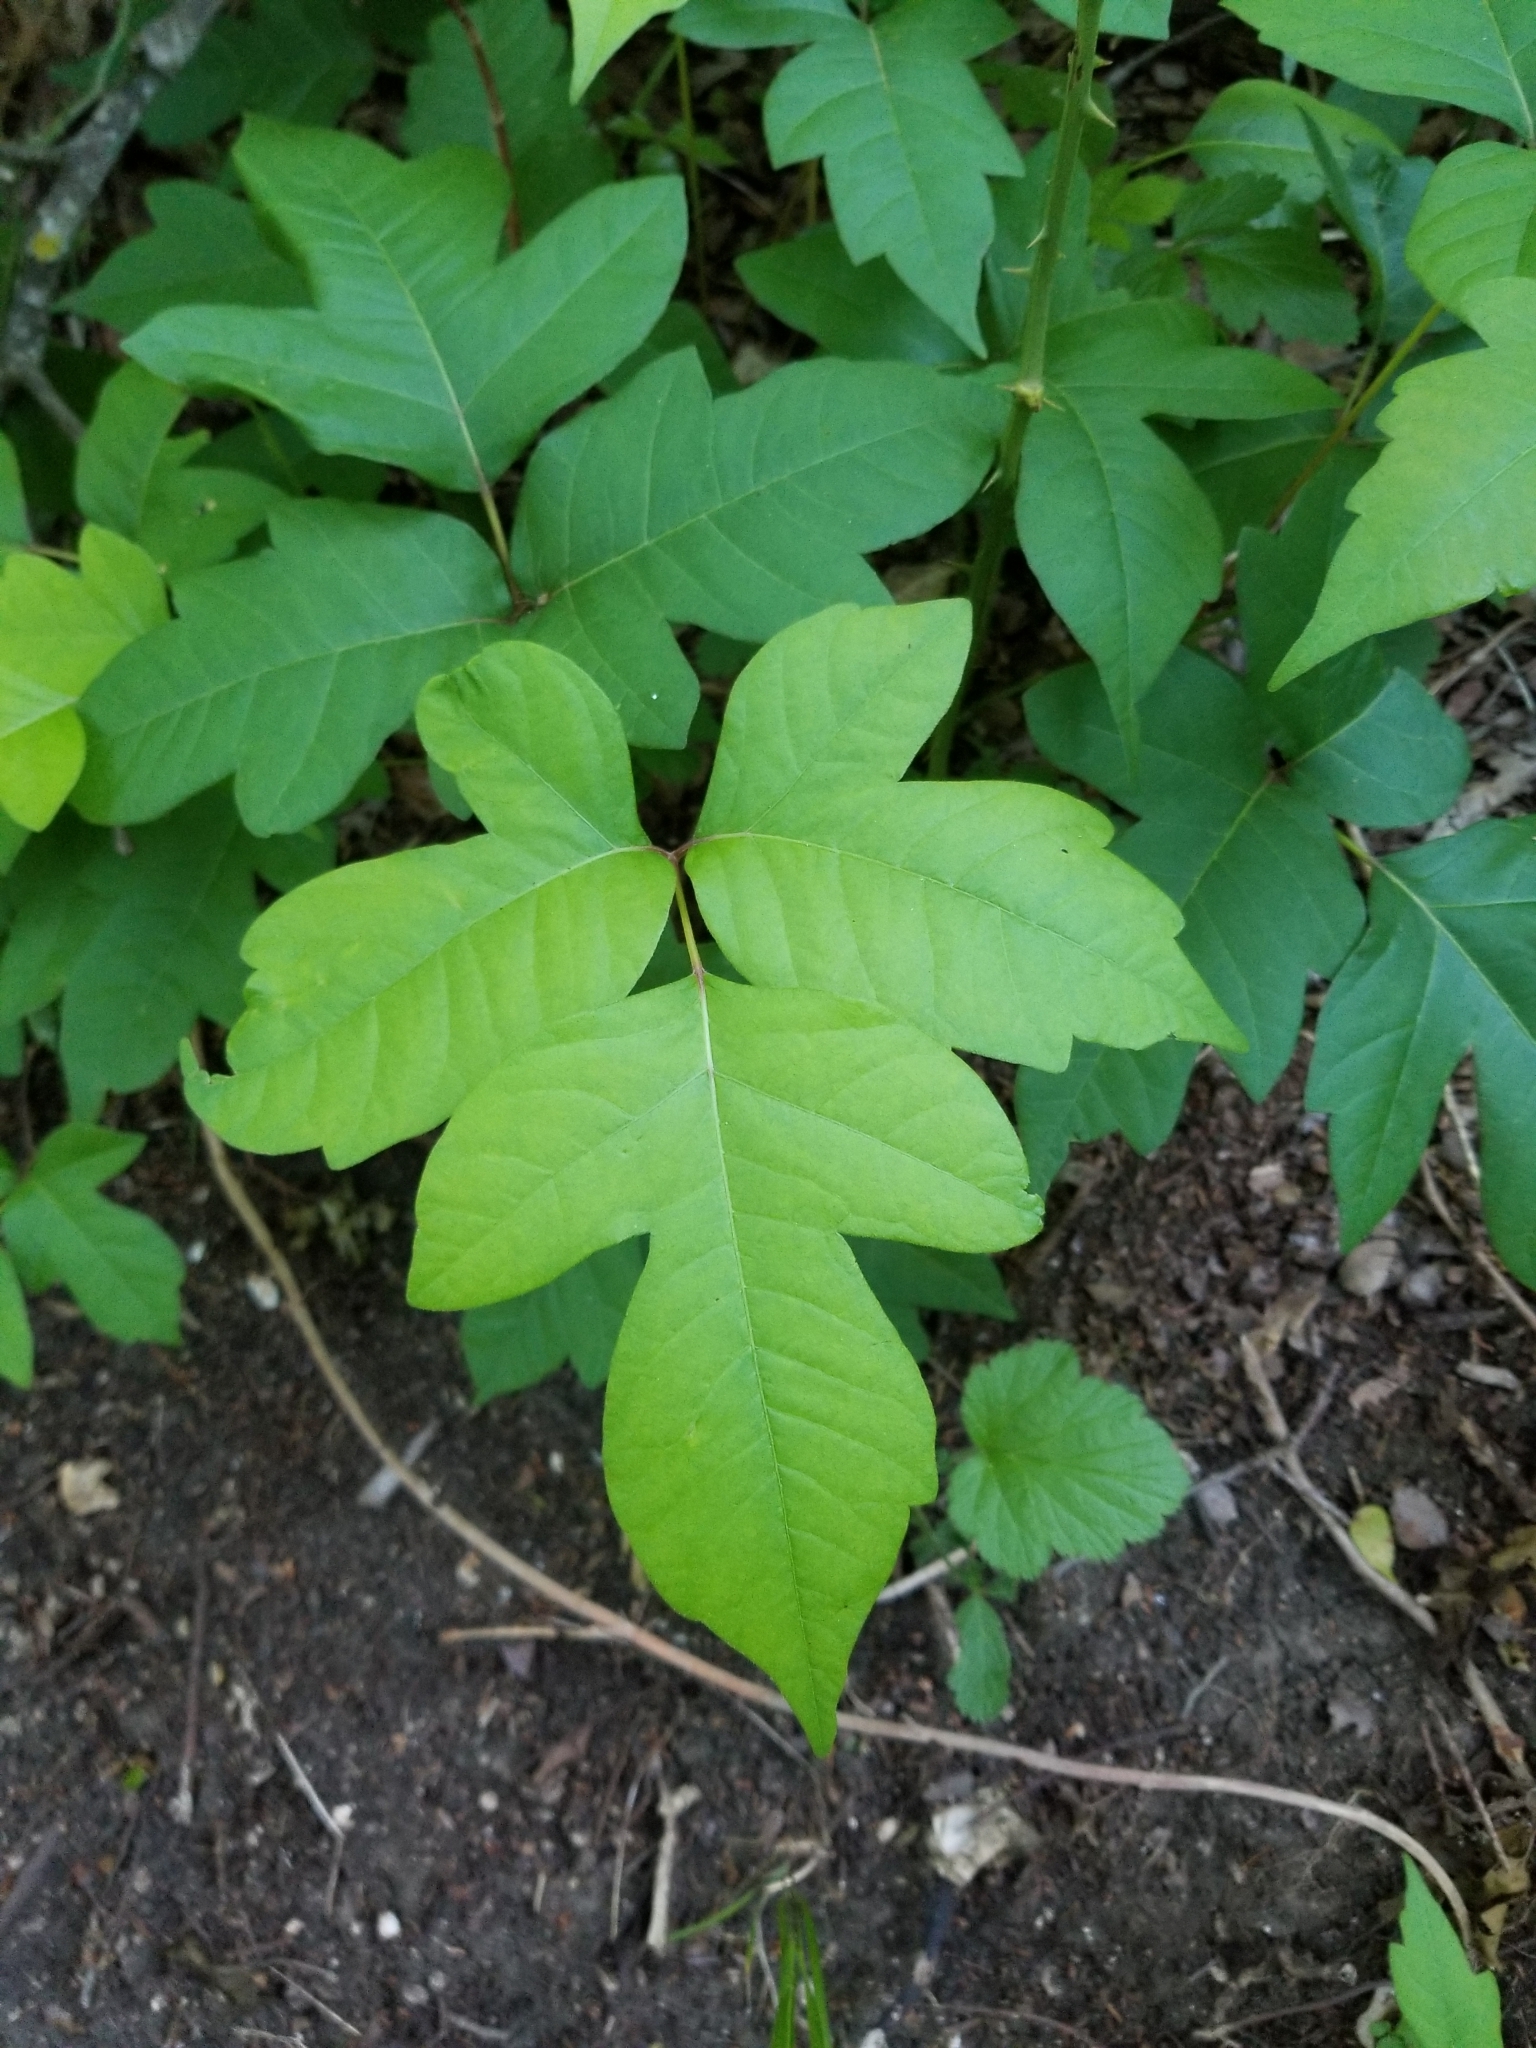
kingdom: Plantae
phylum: Tracheophyta
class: Magnoliopsida
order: Sapindales
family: Anacardiaceae
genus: Toxicodendron
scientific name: Toxicodendron radicans
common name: Poison ivy
